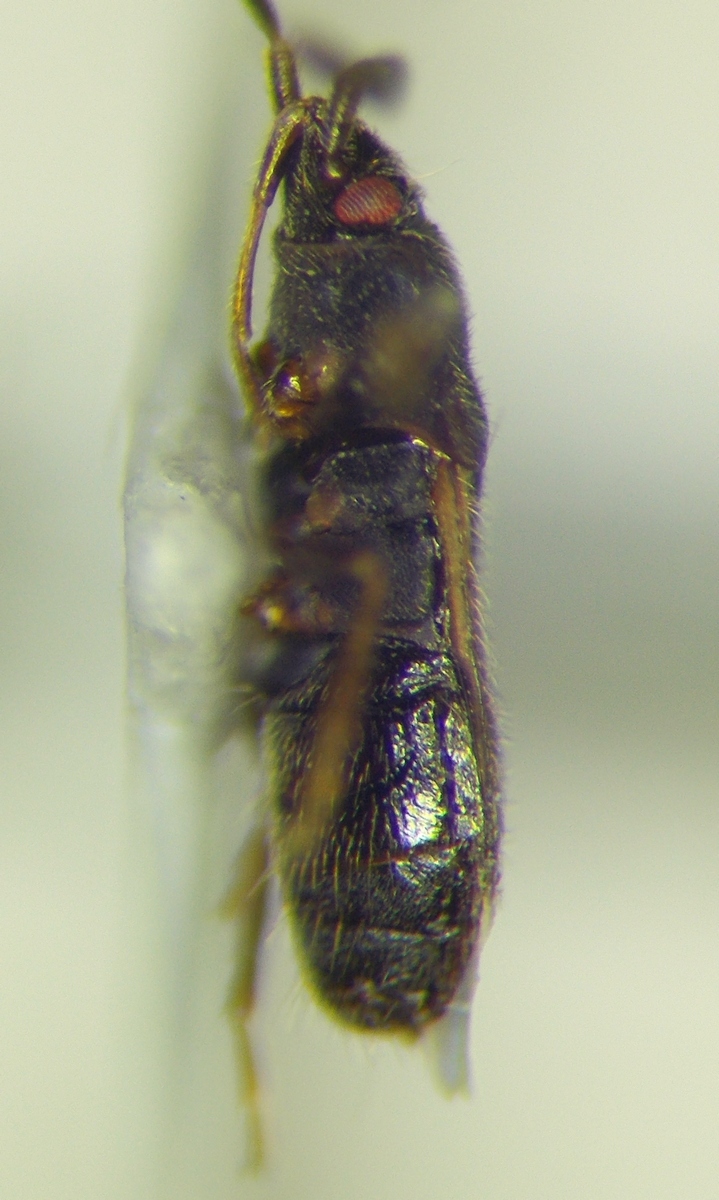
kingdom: Animalia
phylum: Arthropoda
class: Insecta
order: Hemiptera
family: Rhyparochromidae
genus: Tropistethus
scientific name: Tropistethus holosericus
